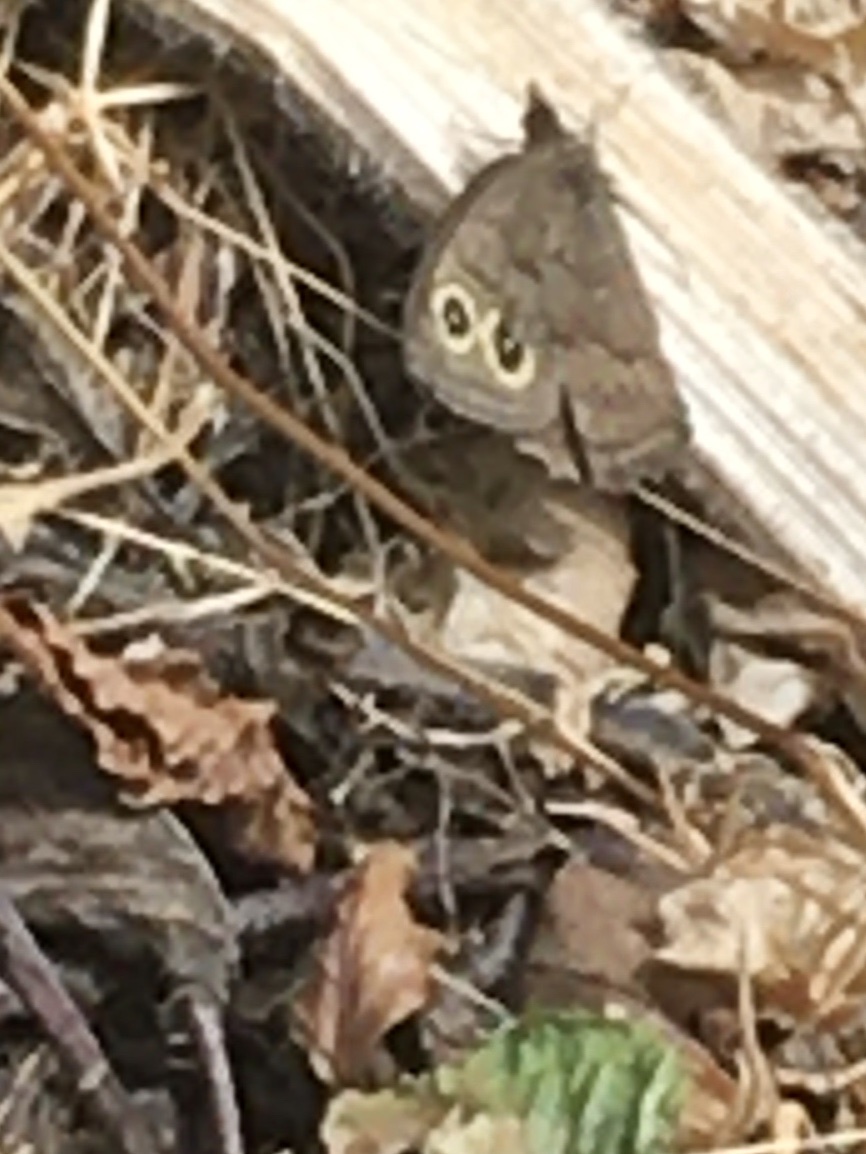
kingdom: Animalia
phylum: Arthropoda
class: Insecta
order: Lepidoptera
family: Nymphalidae
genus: Cercyonis
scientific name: Cercyonis pegala
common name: Common wood-nymph
